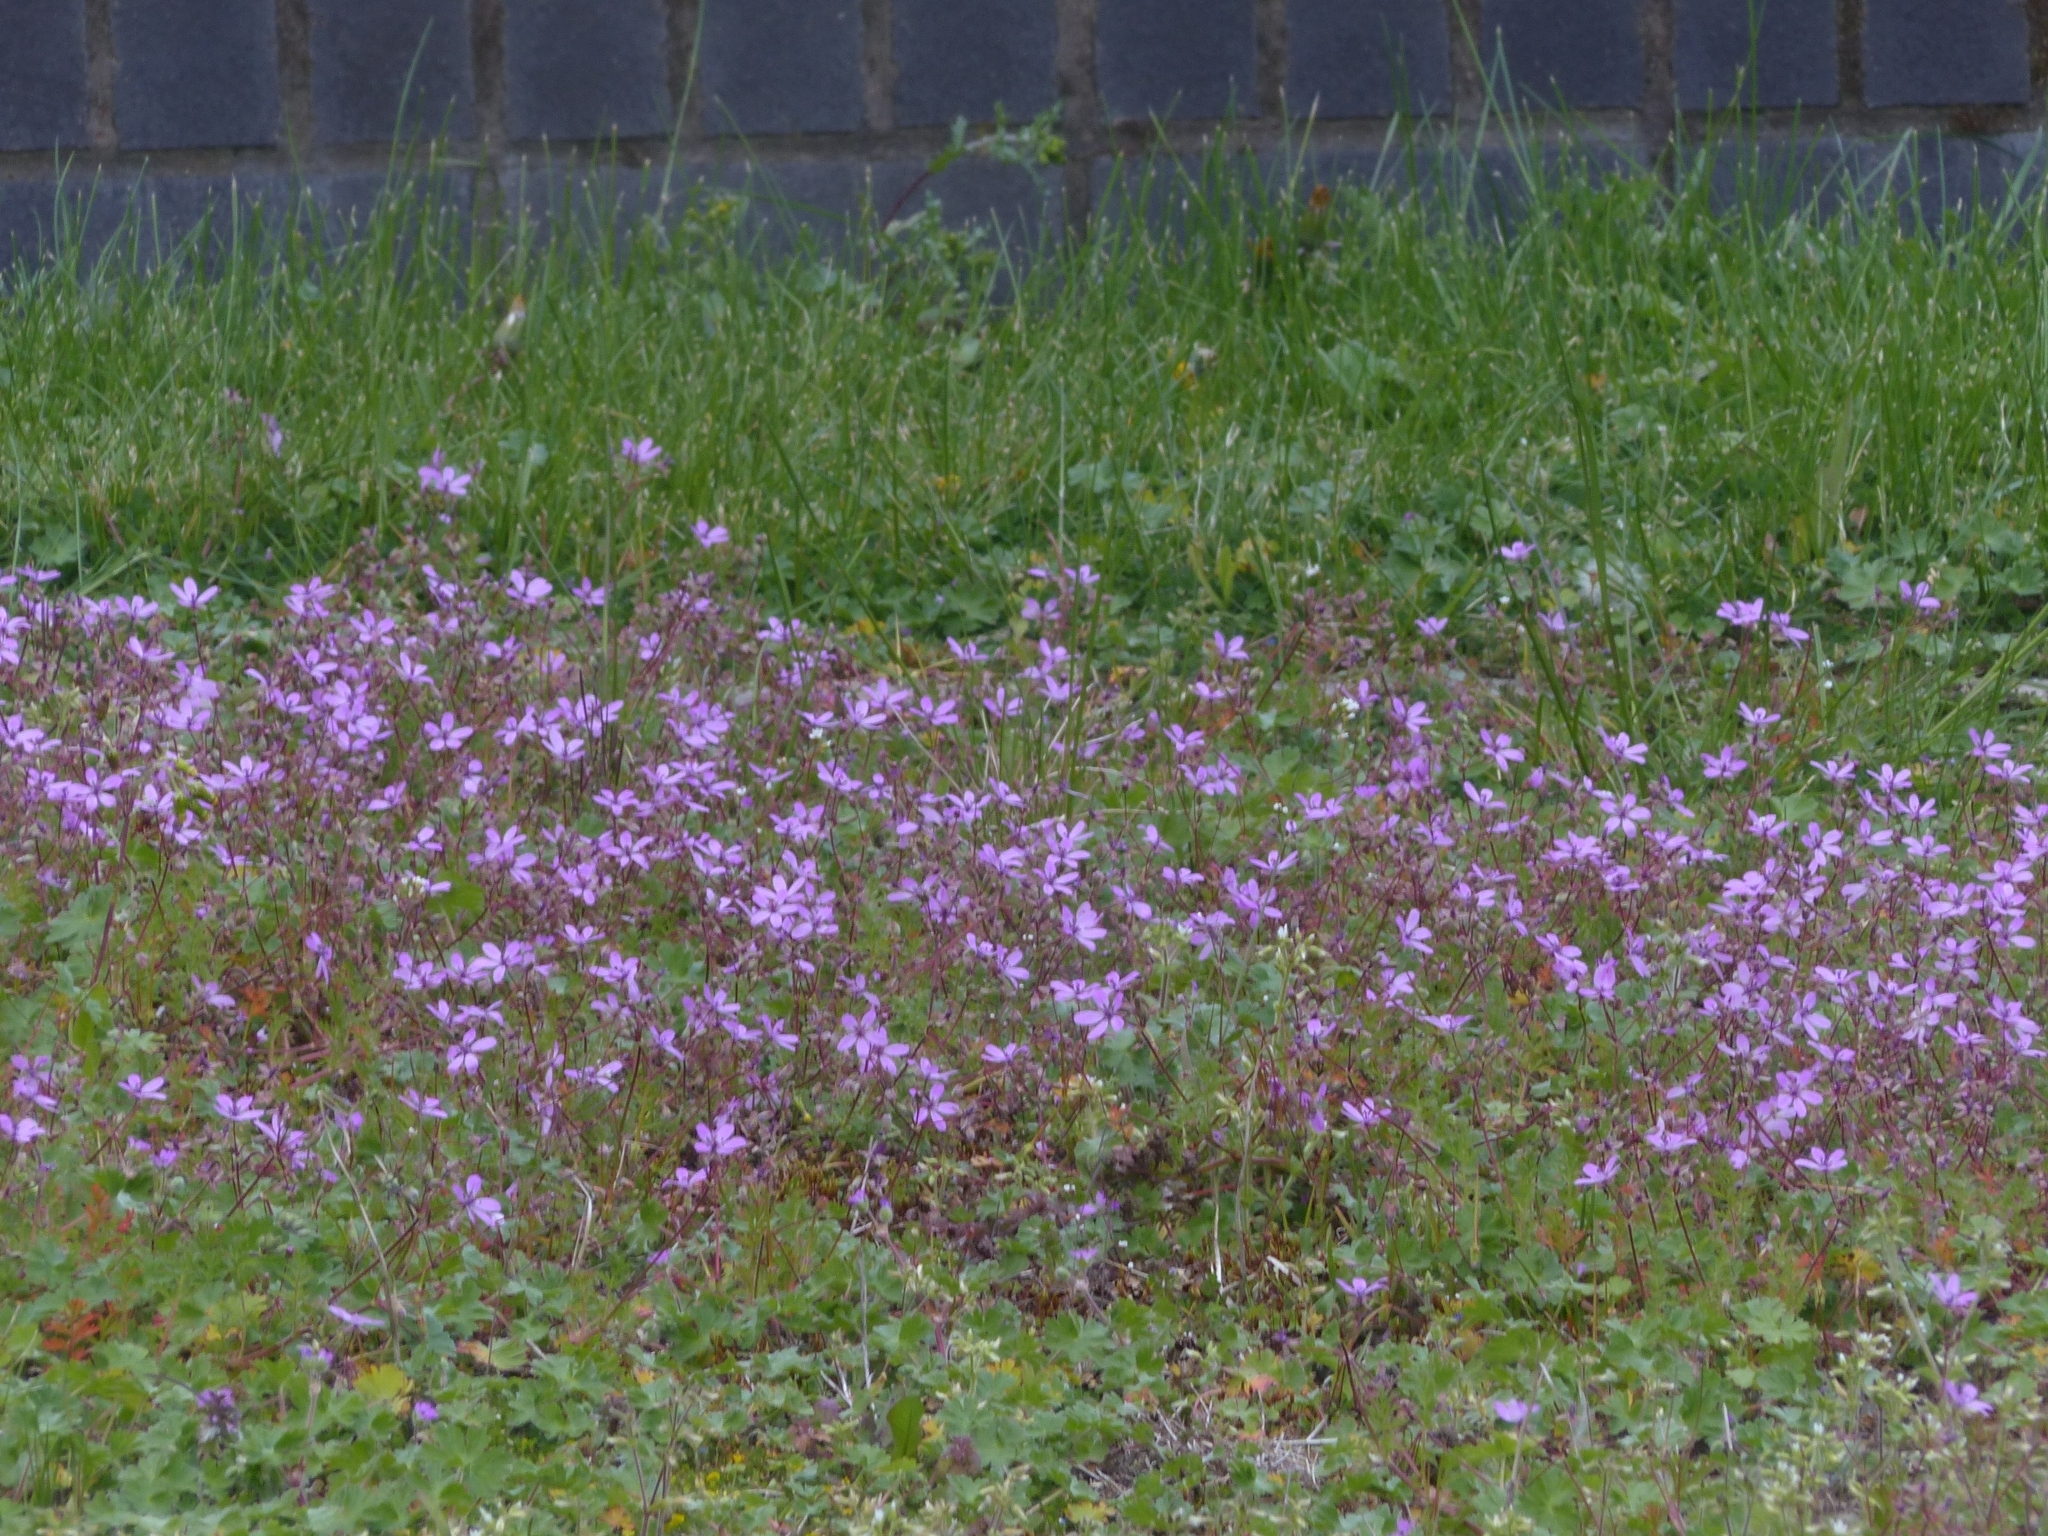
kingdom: Plantae
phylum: Tracheophyta
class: Magnoliopsida
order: Geraniales
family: Geraniaceae
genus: Erodium
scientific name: Erodium cicutarium
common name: Common stork's-bill
